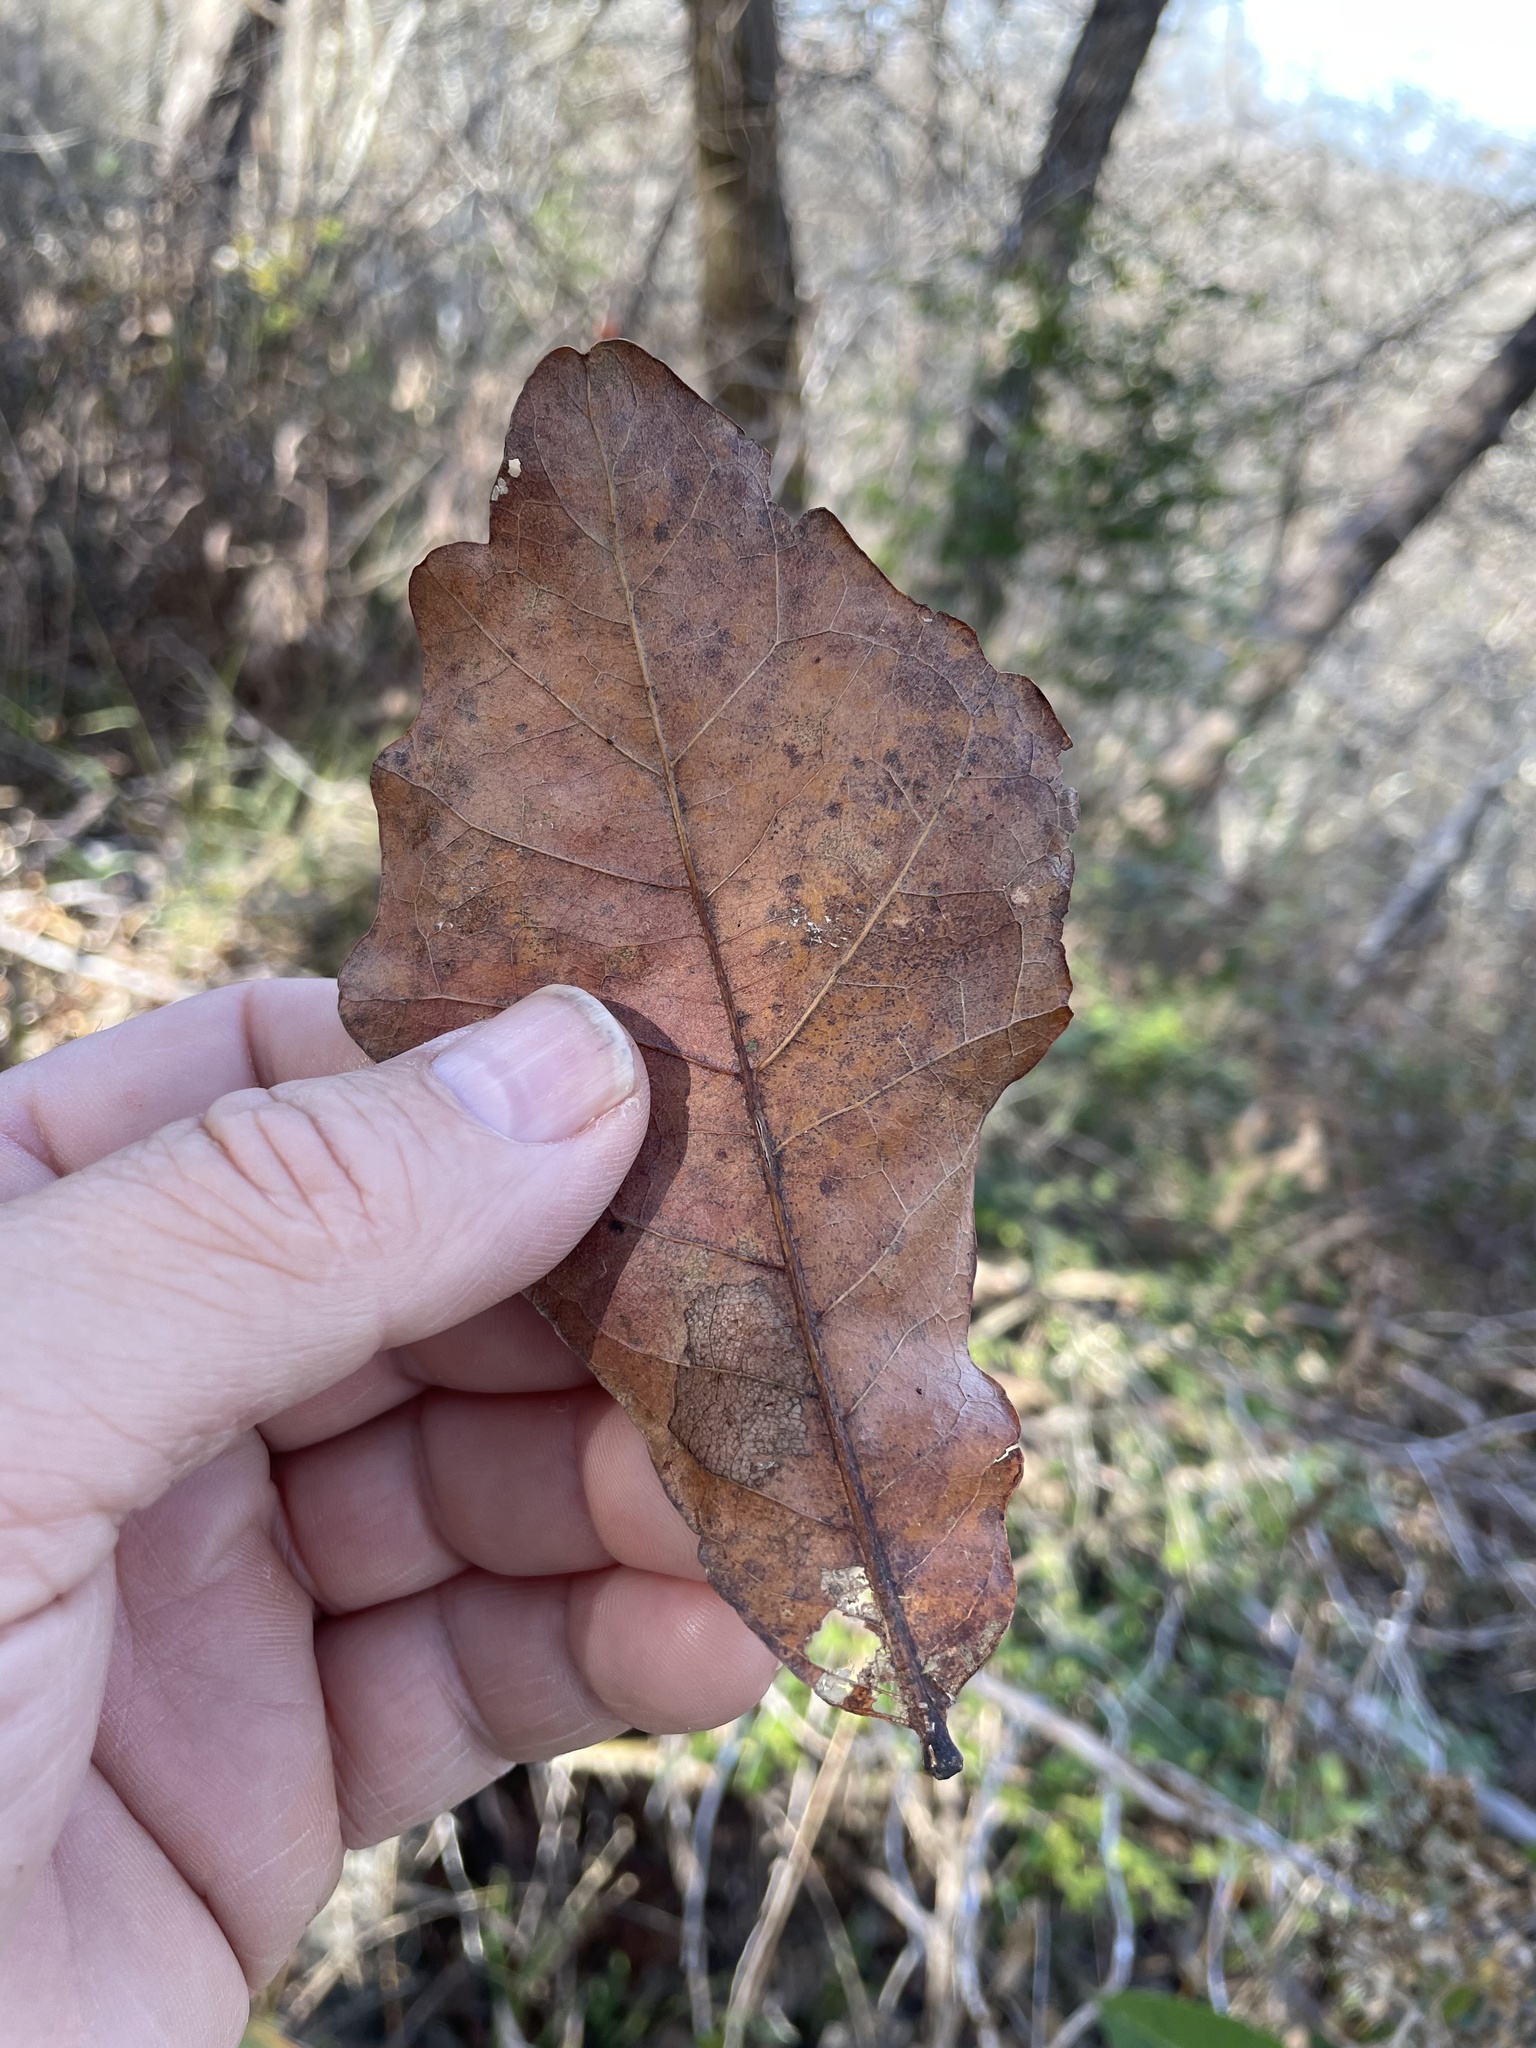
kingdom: Plantae
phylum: Tracheophyta
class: Magnoliopsida
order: Fagales
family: Fagaceae
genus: Quercus
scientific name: Quercus sinuata
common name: Durand oak
